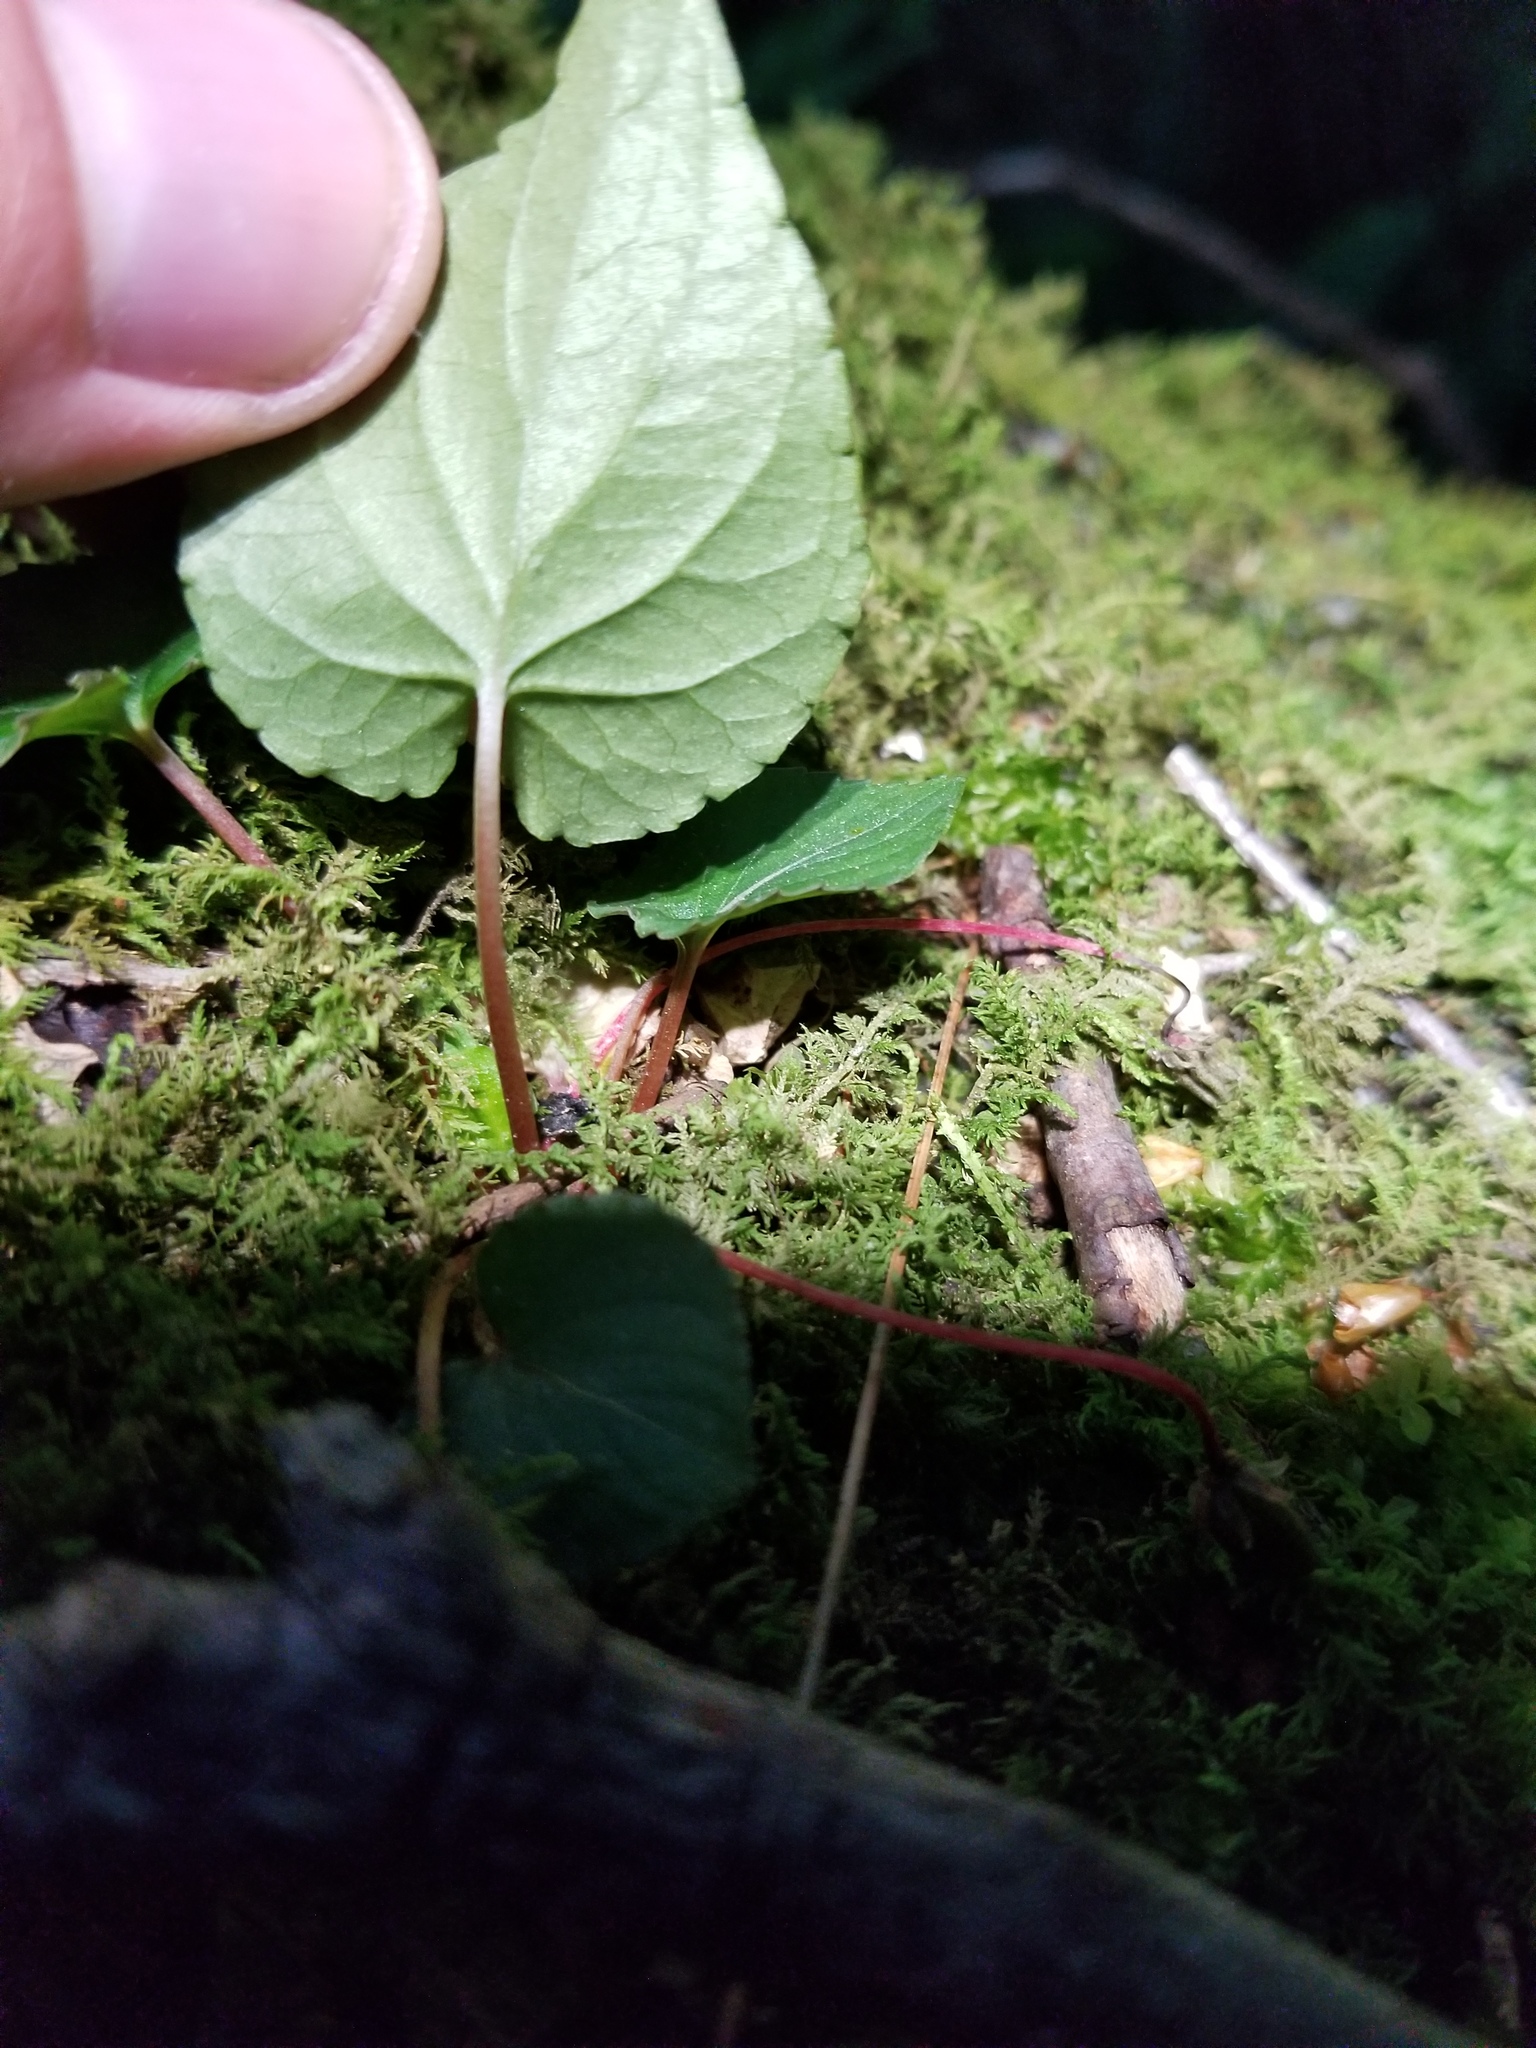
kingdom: Plantae
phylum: Tracheophyta
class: Magnoliopsida
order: Malpighiales
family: Violaceae
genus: Viola
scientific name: Viola blanda
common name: Sweet white violet
